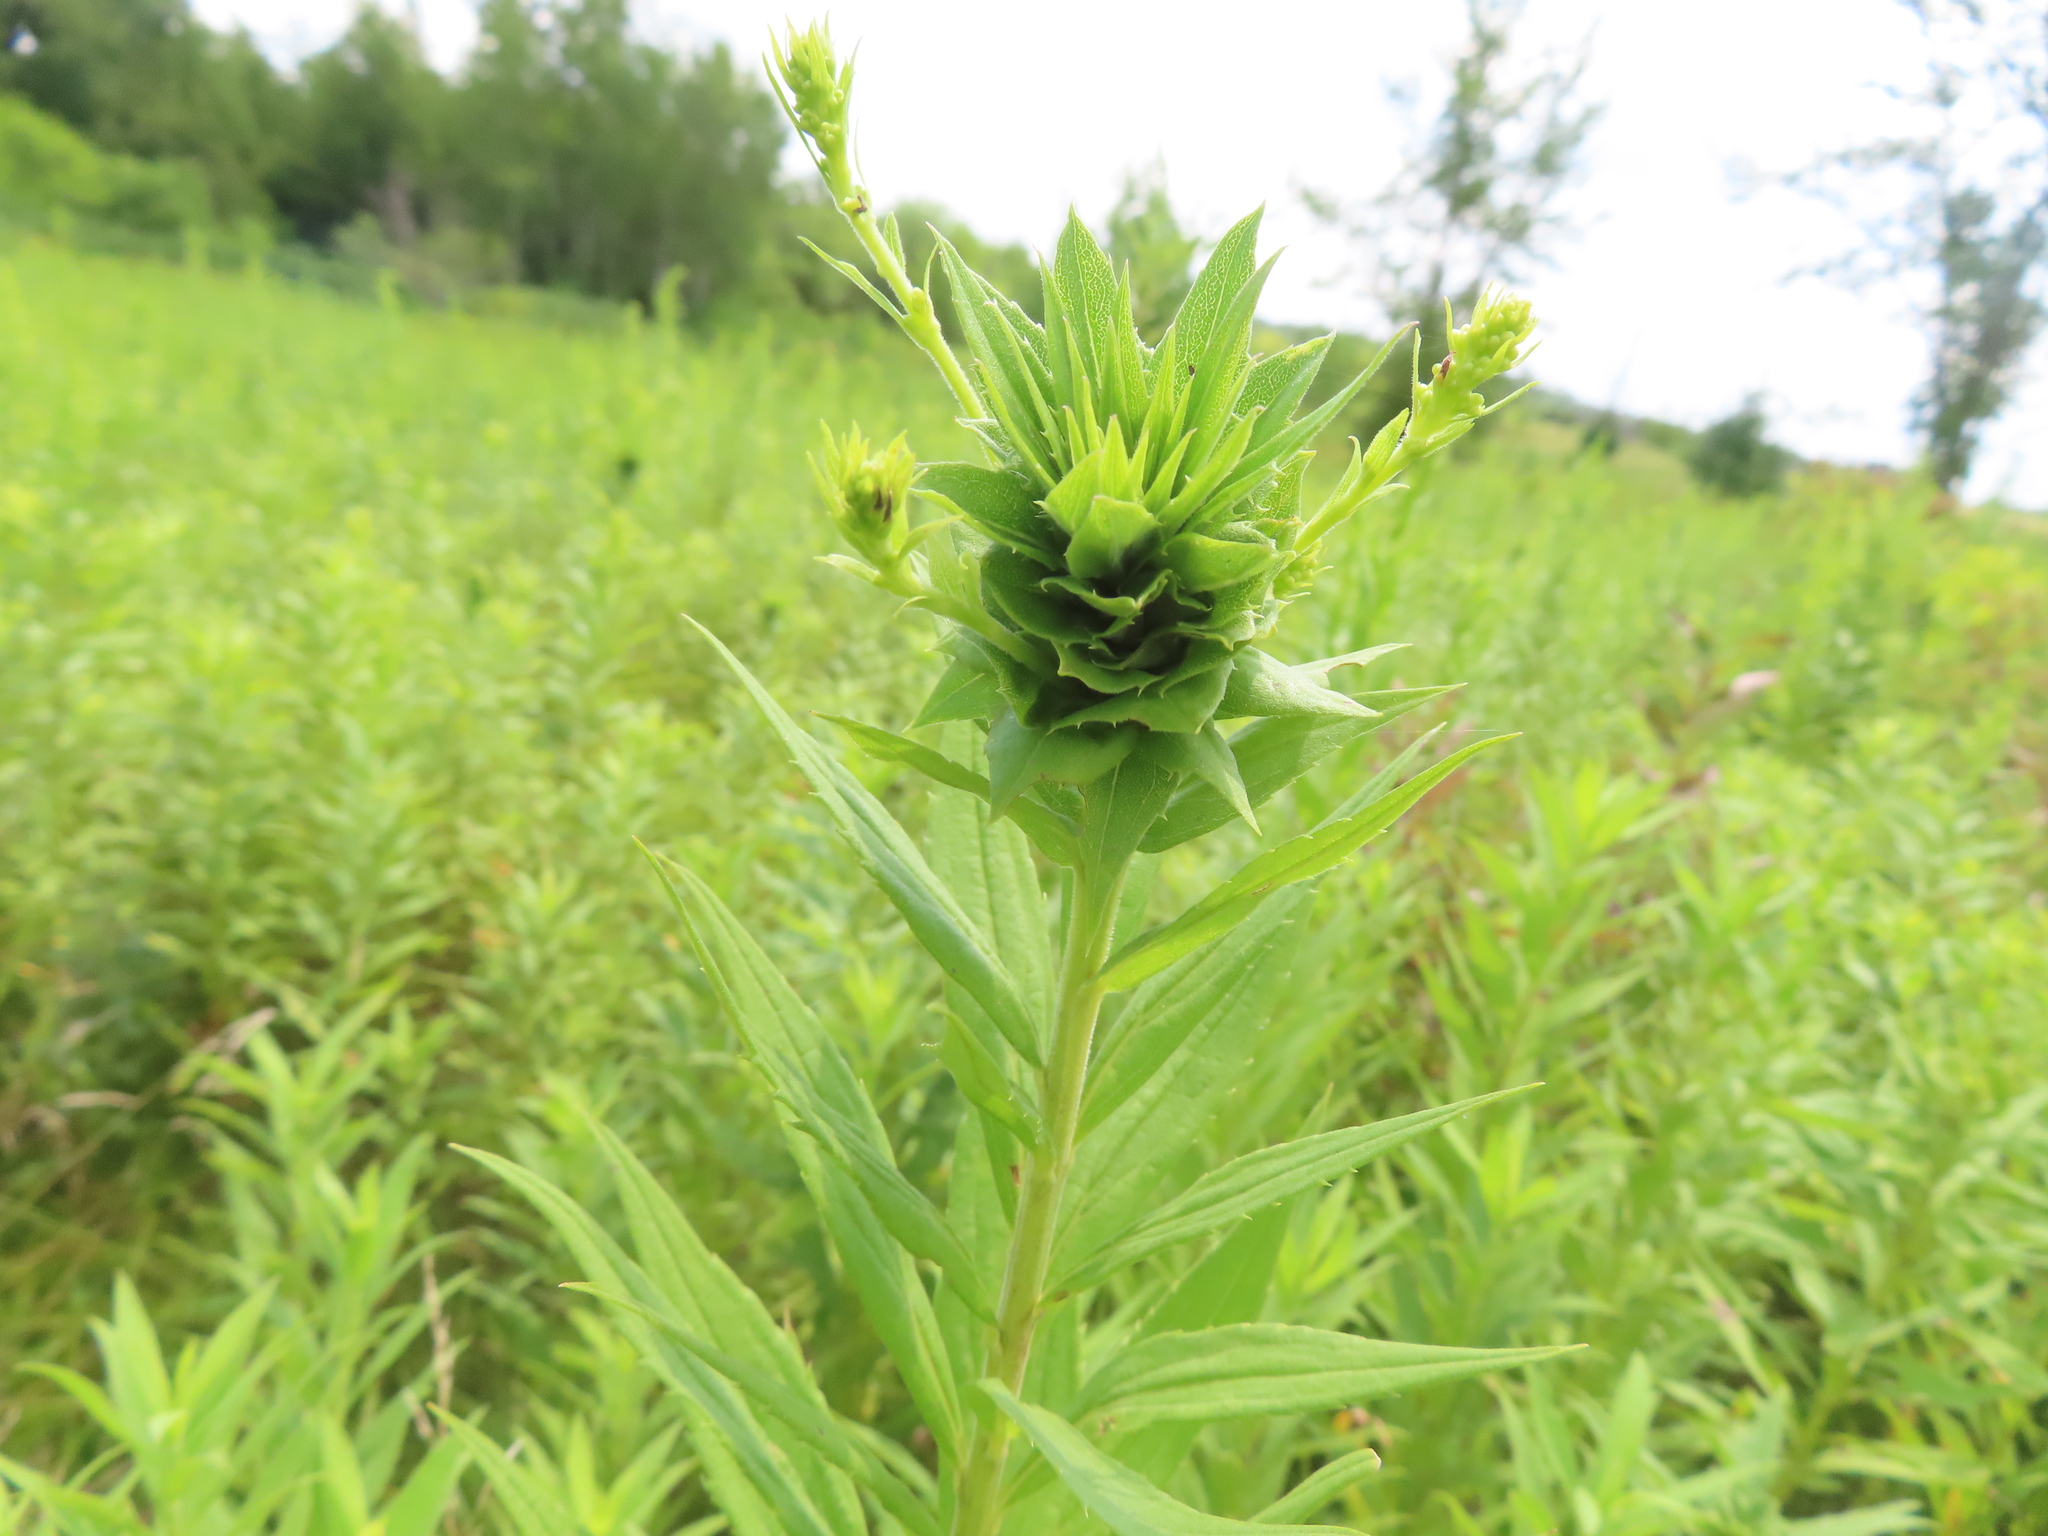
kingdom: Animalia
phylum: Arthropoda
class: Insecta
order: Diptera
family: Cecidomyiidae
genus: Rhopalomyia
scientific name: Rhopalomyia solidaginis
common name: Goldenrod bunch gall midge
